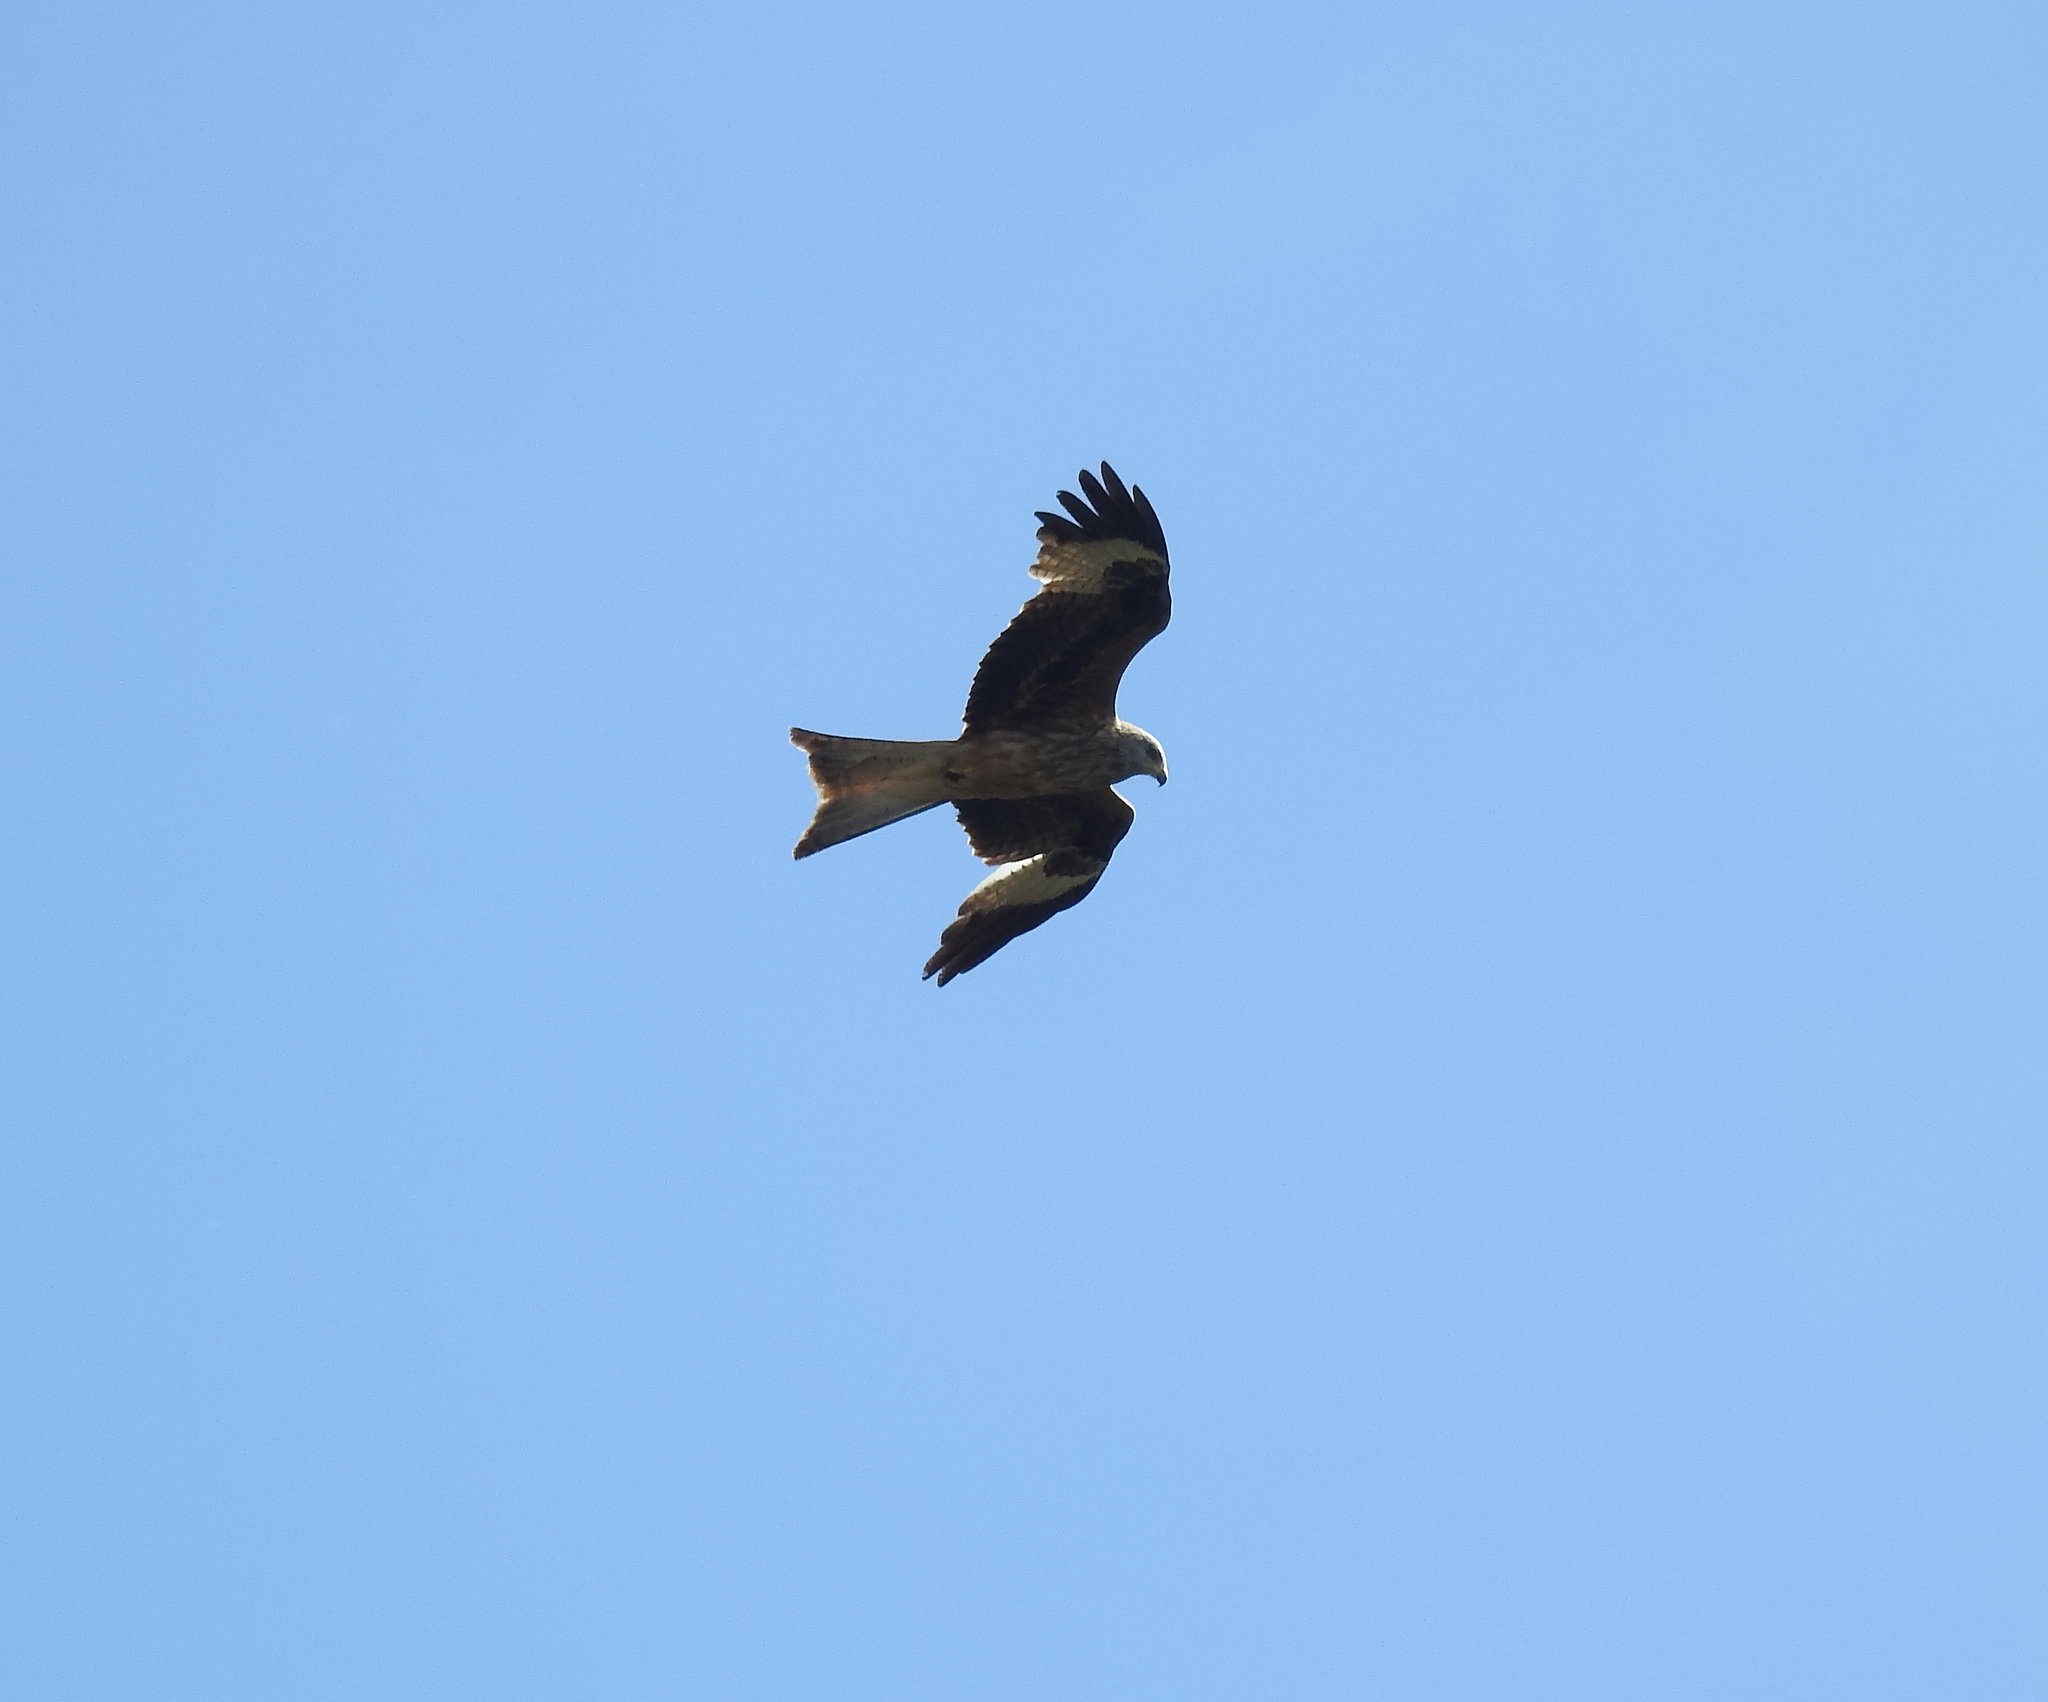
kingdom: Animalia
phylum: Chordata
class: Aves
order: Accipitriformes
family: Accipitridae
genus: Milvus
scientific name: Milvus milvus
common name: Red kite
